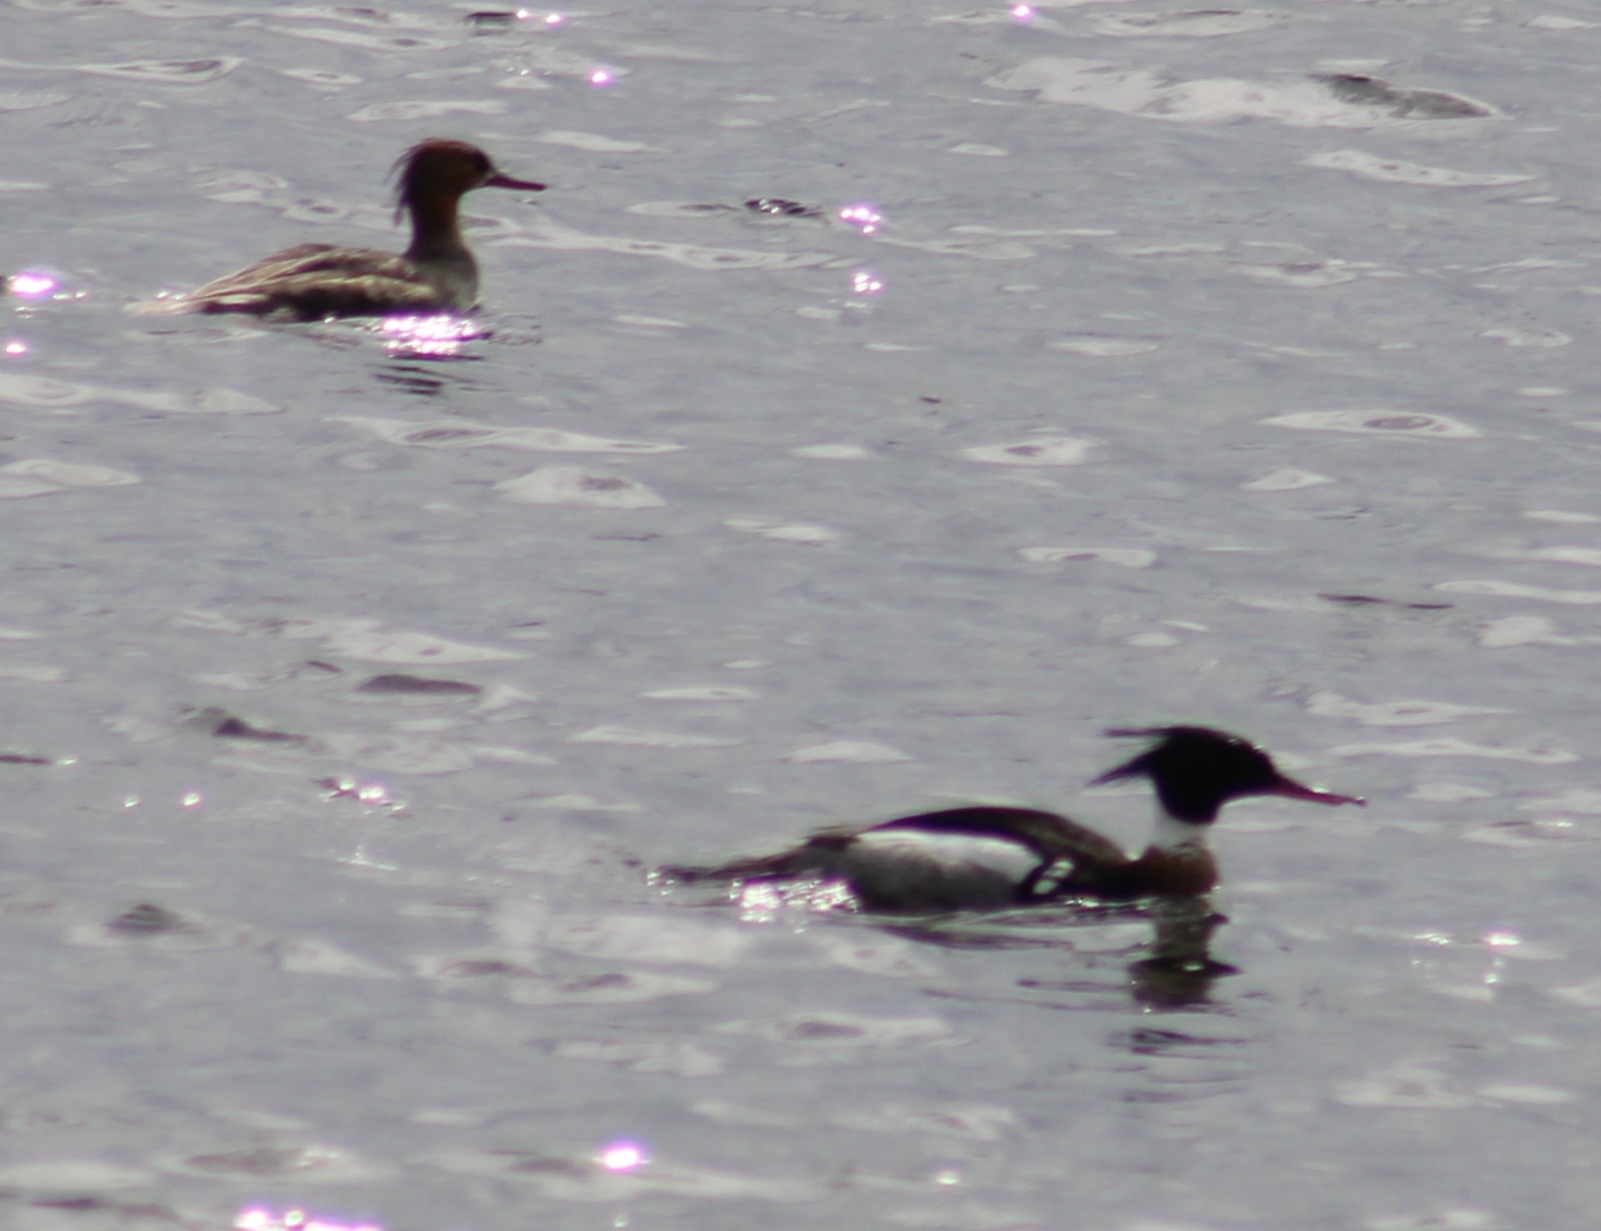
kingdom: Animalia
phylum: Chordata
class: Aves
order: Anseriformes
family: Anatidae
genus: Mergus
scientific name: Mergus serrator
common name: Red-breasted merganser
